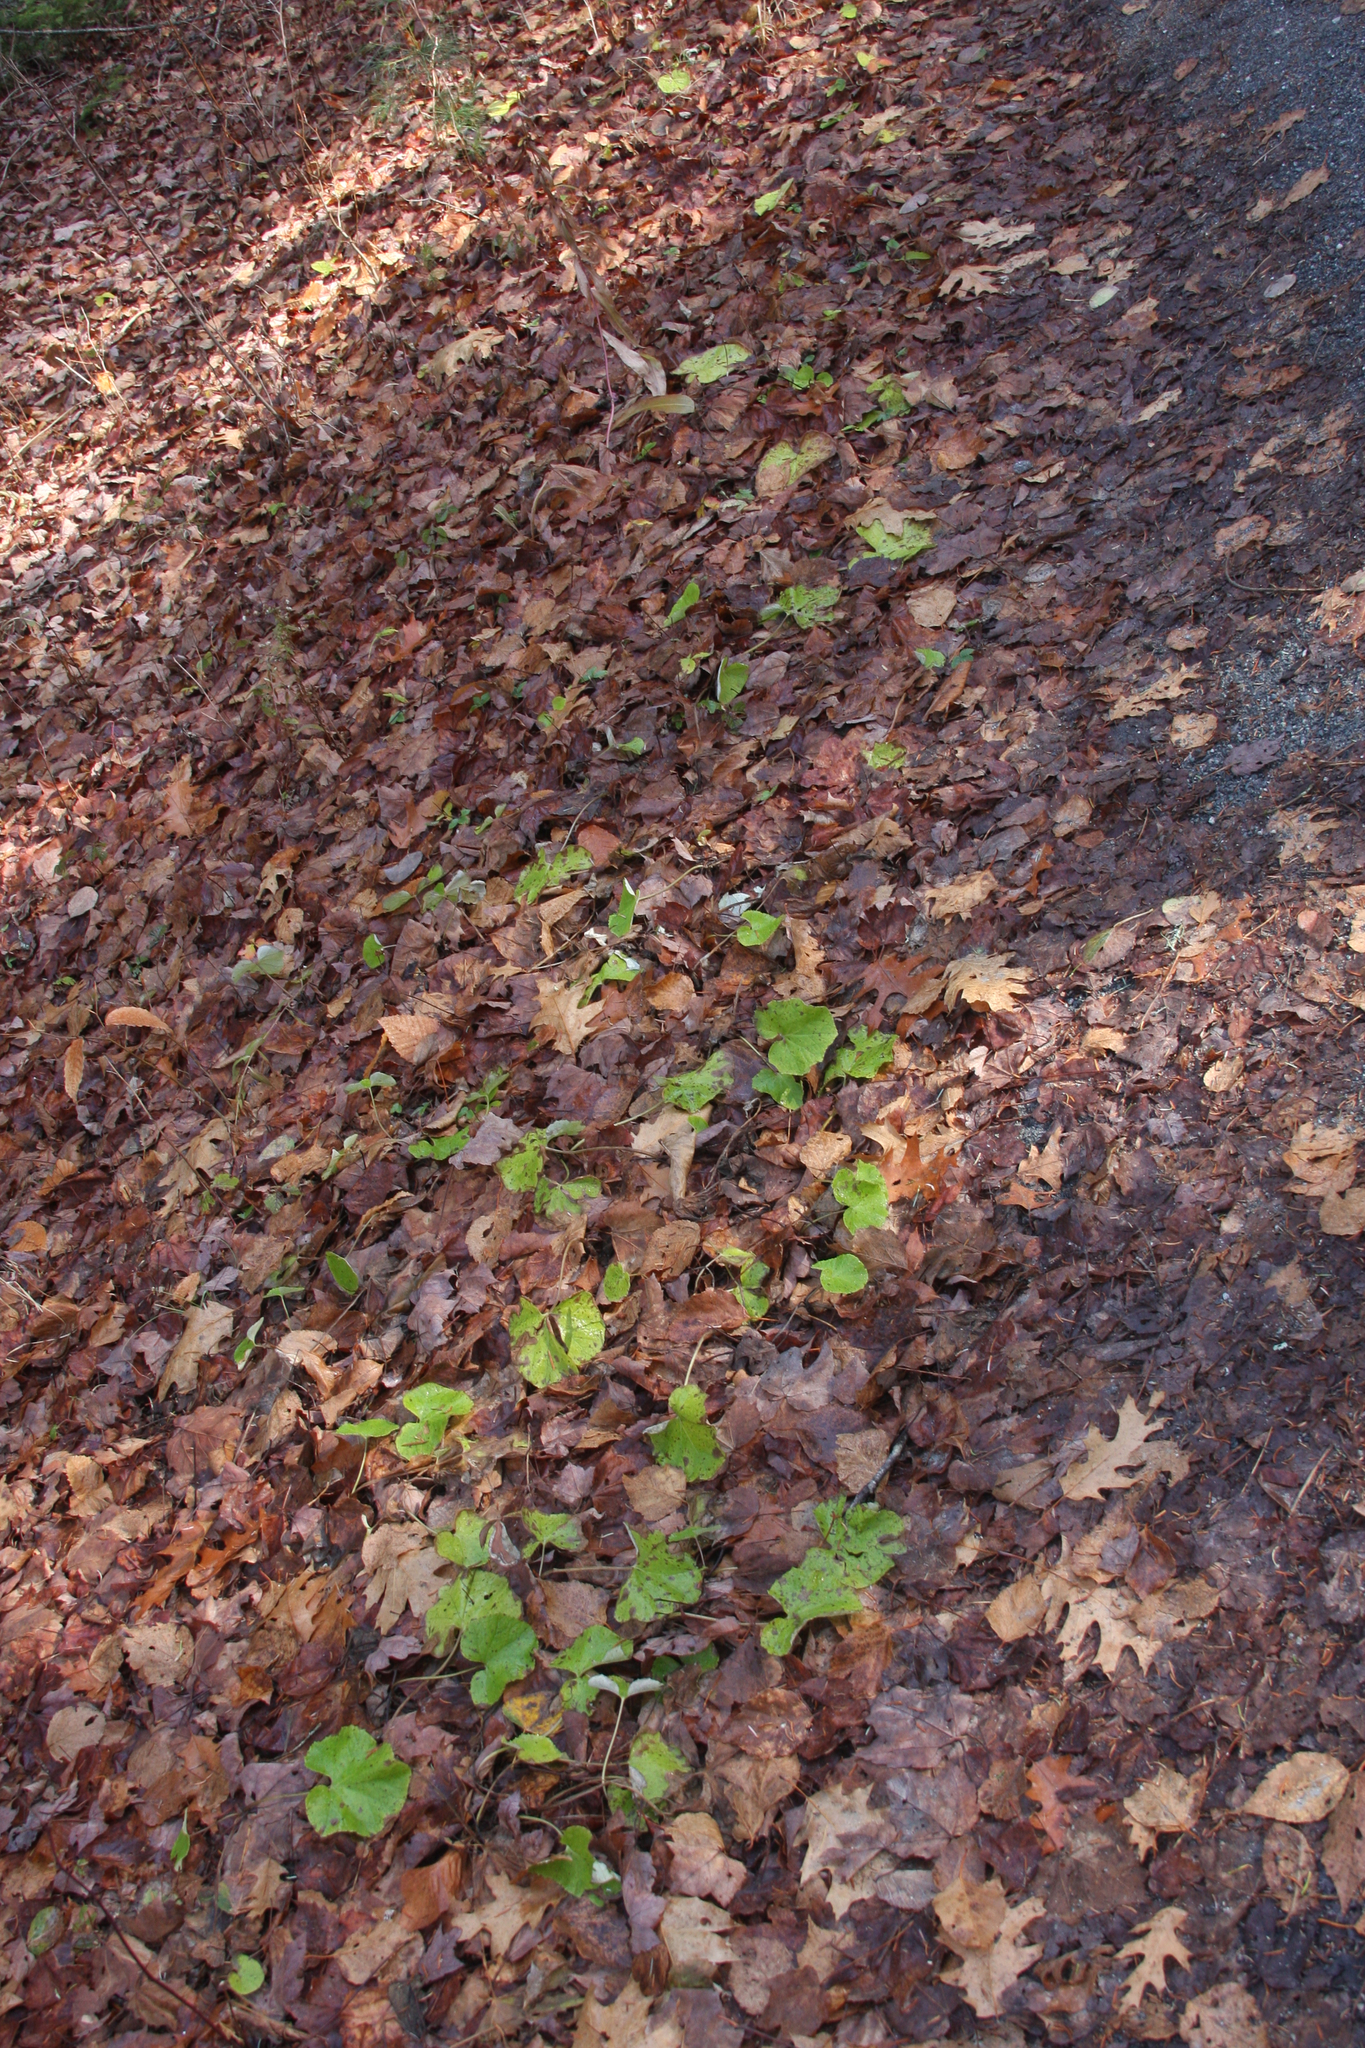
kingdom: Plantae
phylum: Tracheophyta
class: Magnoliopsida
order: Asterales
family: Asteraceae
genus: Tussilago
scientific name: Tussilago farfara
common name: Coltsfoot
